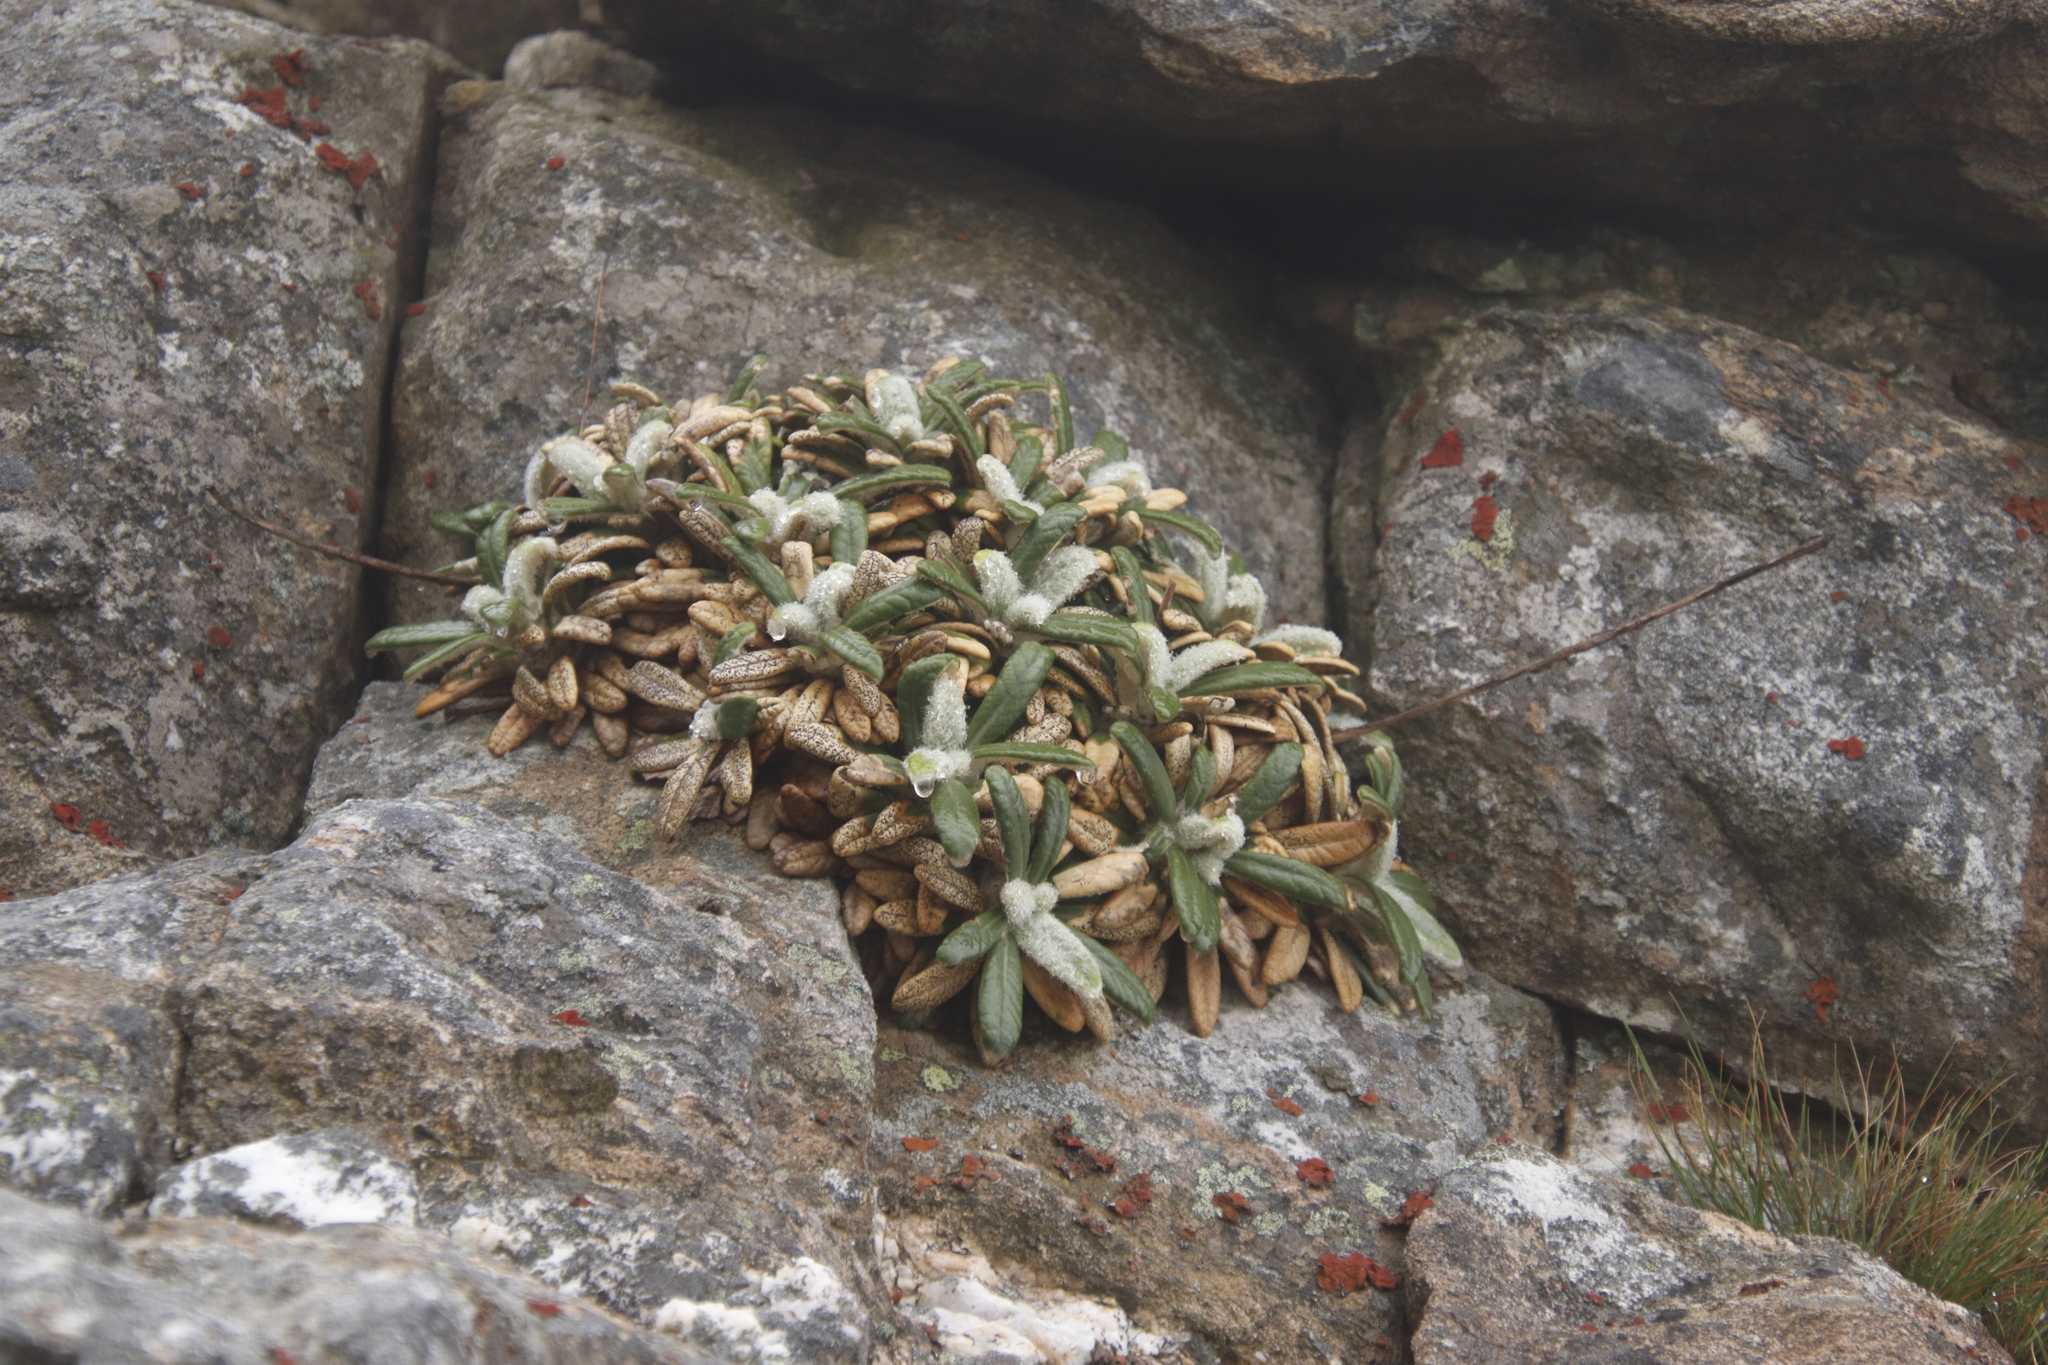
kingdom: Plantae
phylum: Tracheophyta
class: Magnoliopsida
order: Asterales
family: Asteraceae
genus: Oldenburgia
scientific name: Oldenburgia intermedia
